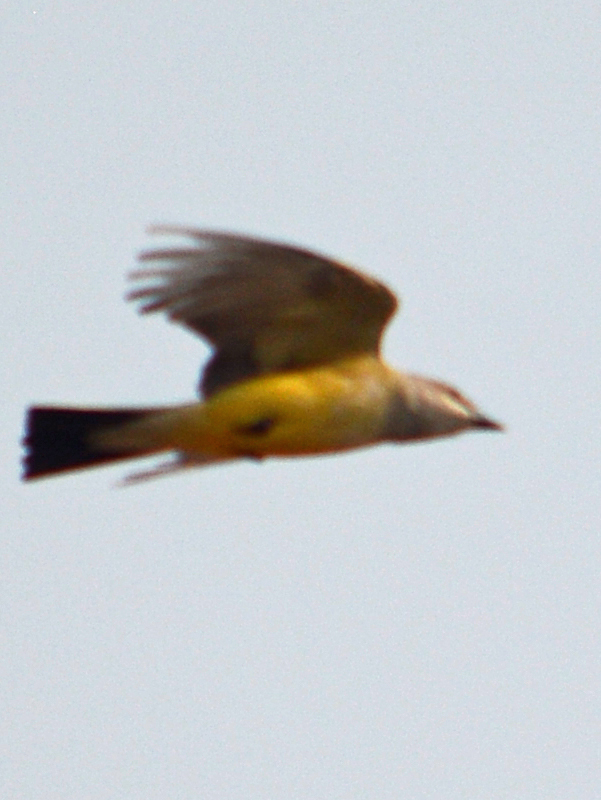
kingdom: Animalia
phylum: Chordata
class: Aves
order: Passeriformes
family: Tyrannidae
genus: Tyrannus
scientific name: Tyrannus vociferans
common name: Cassin's kingbird
